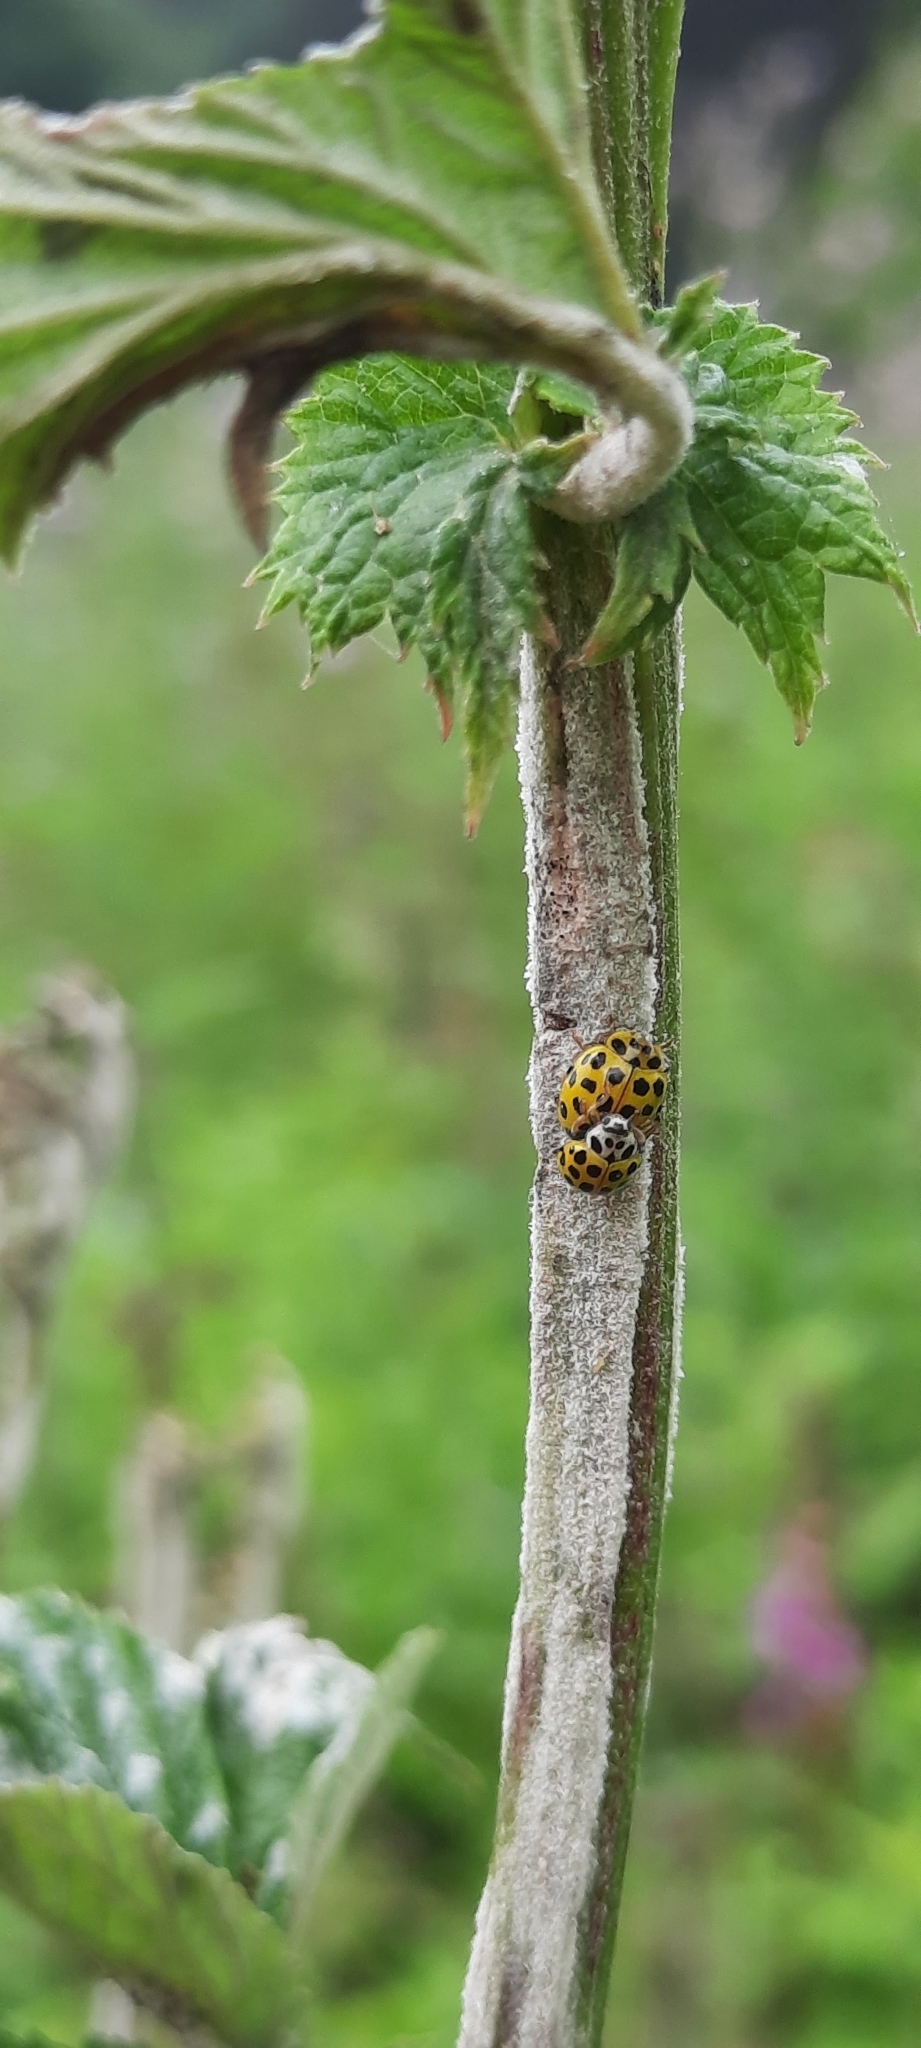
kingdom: Animalia
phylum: Arthropoda
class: Insecta
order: Coleoptera
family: Coccinellidae
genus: Psyllobora
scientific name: Psyllobora vigintiduopunctata
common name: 22-spot ladybird
